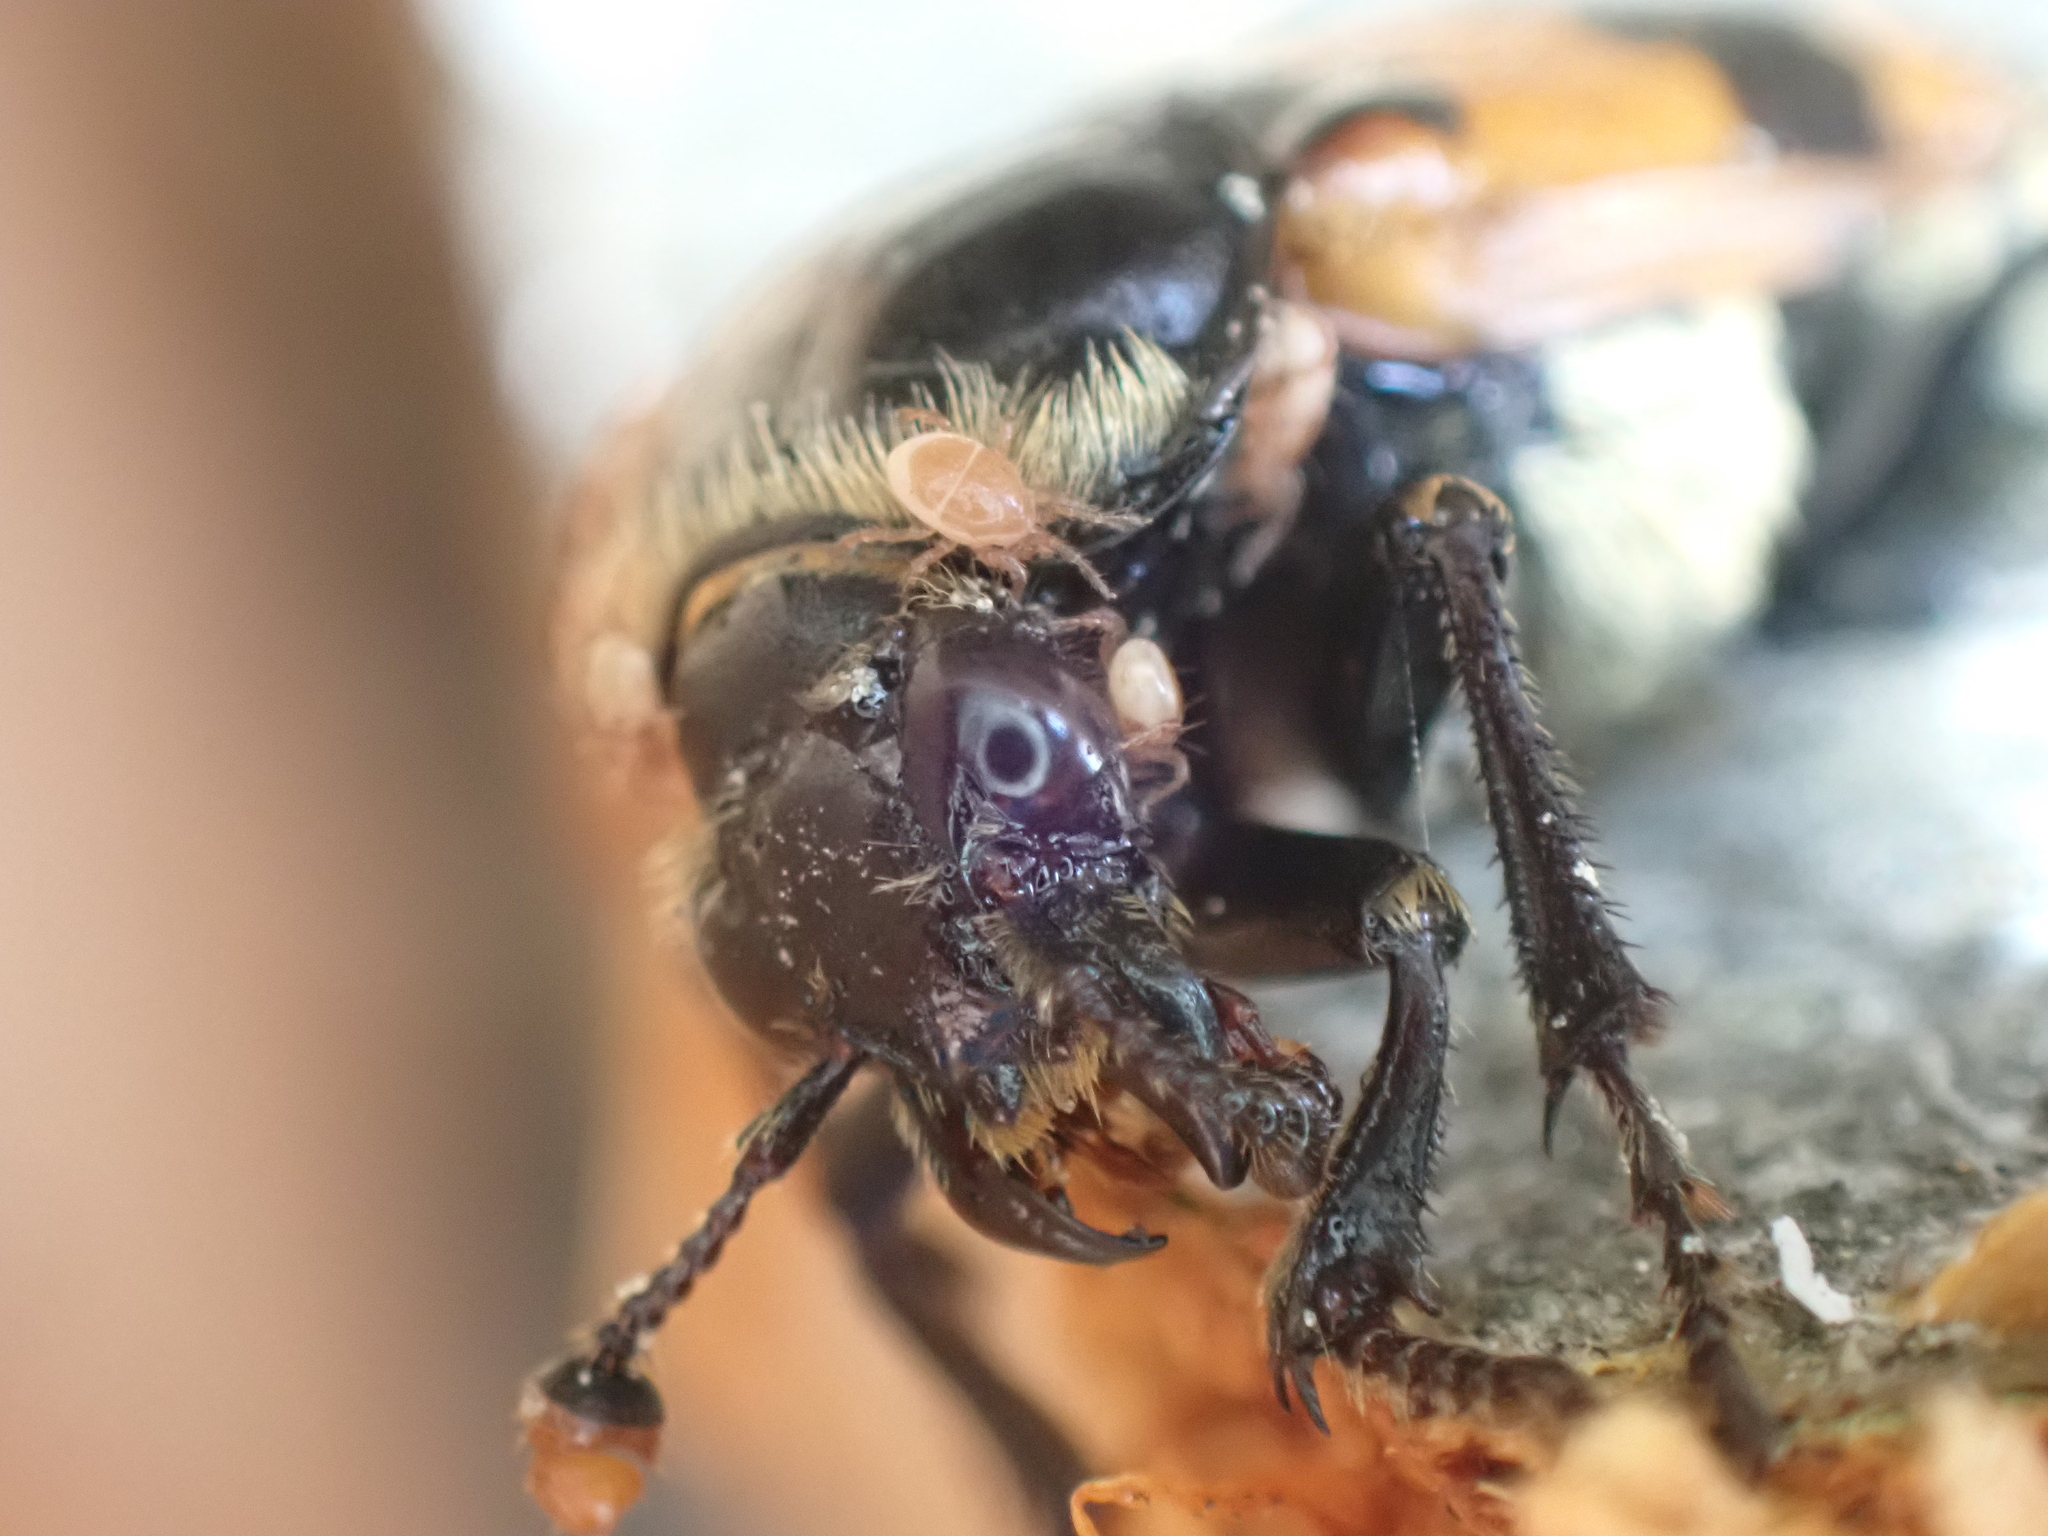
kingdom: Animalia
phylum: Arthropoda
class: Insecta
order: Coleoptera
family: Staphylinidae
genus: Nicrophorus
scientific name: Nicrophorus vespillo
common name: Common burying beetle
